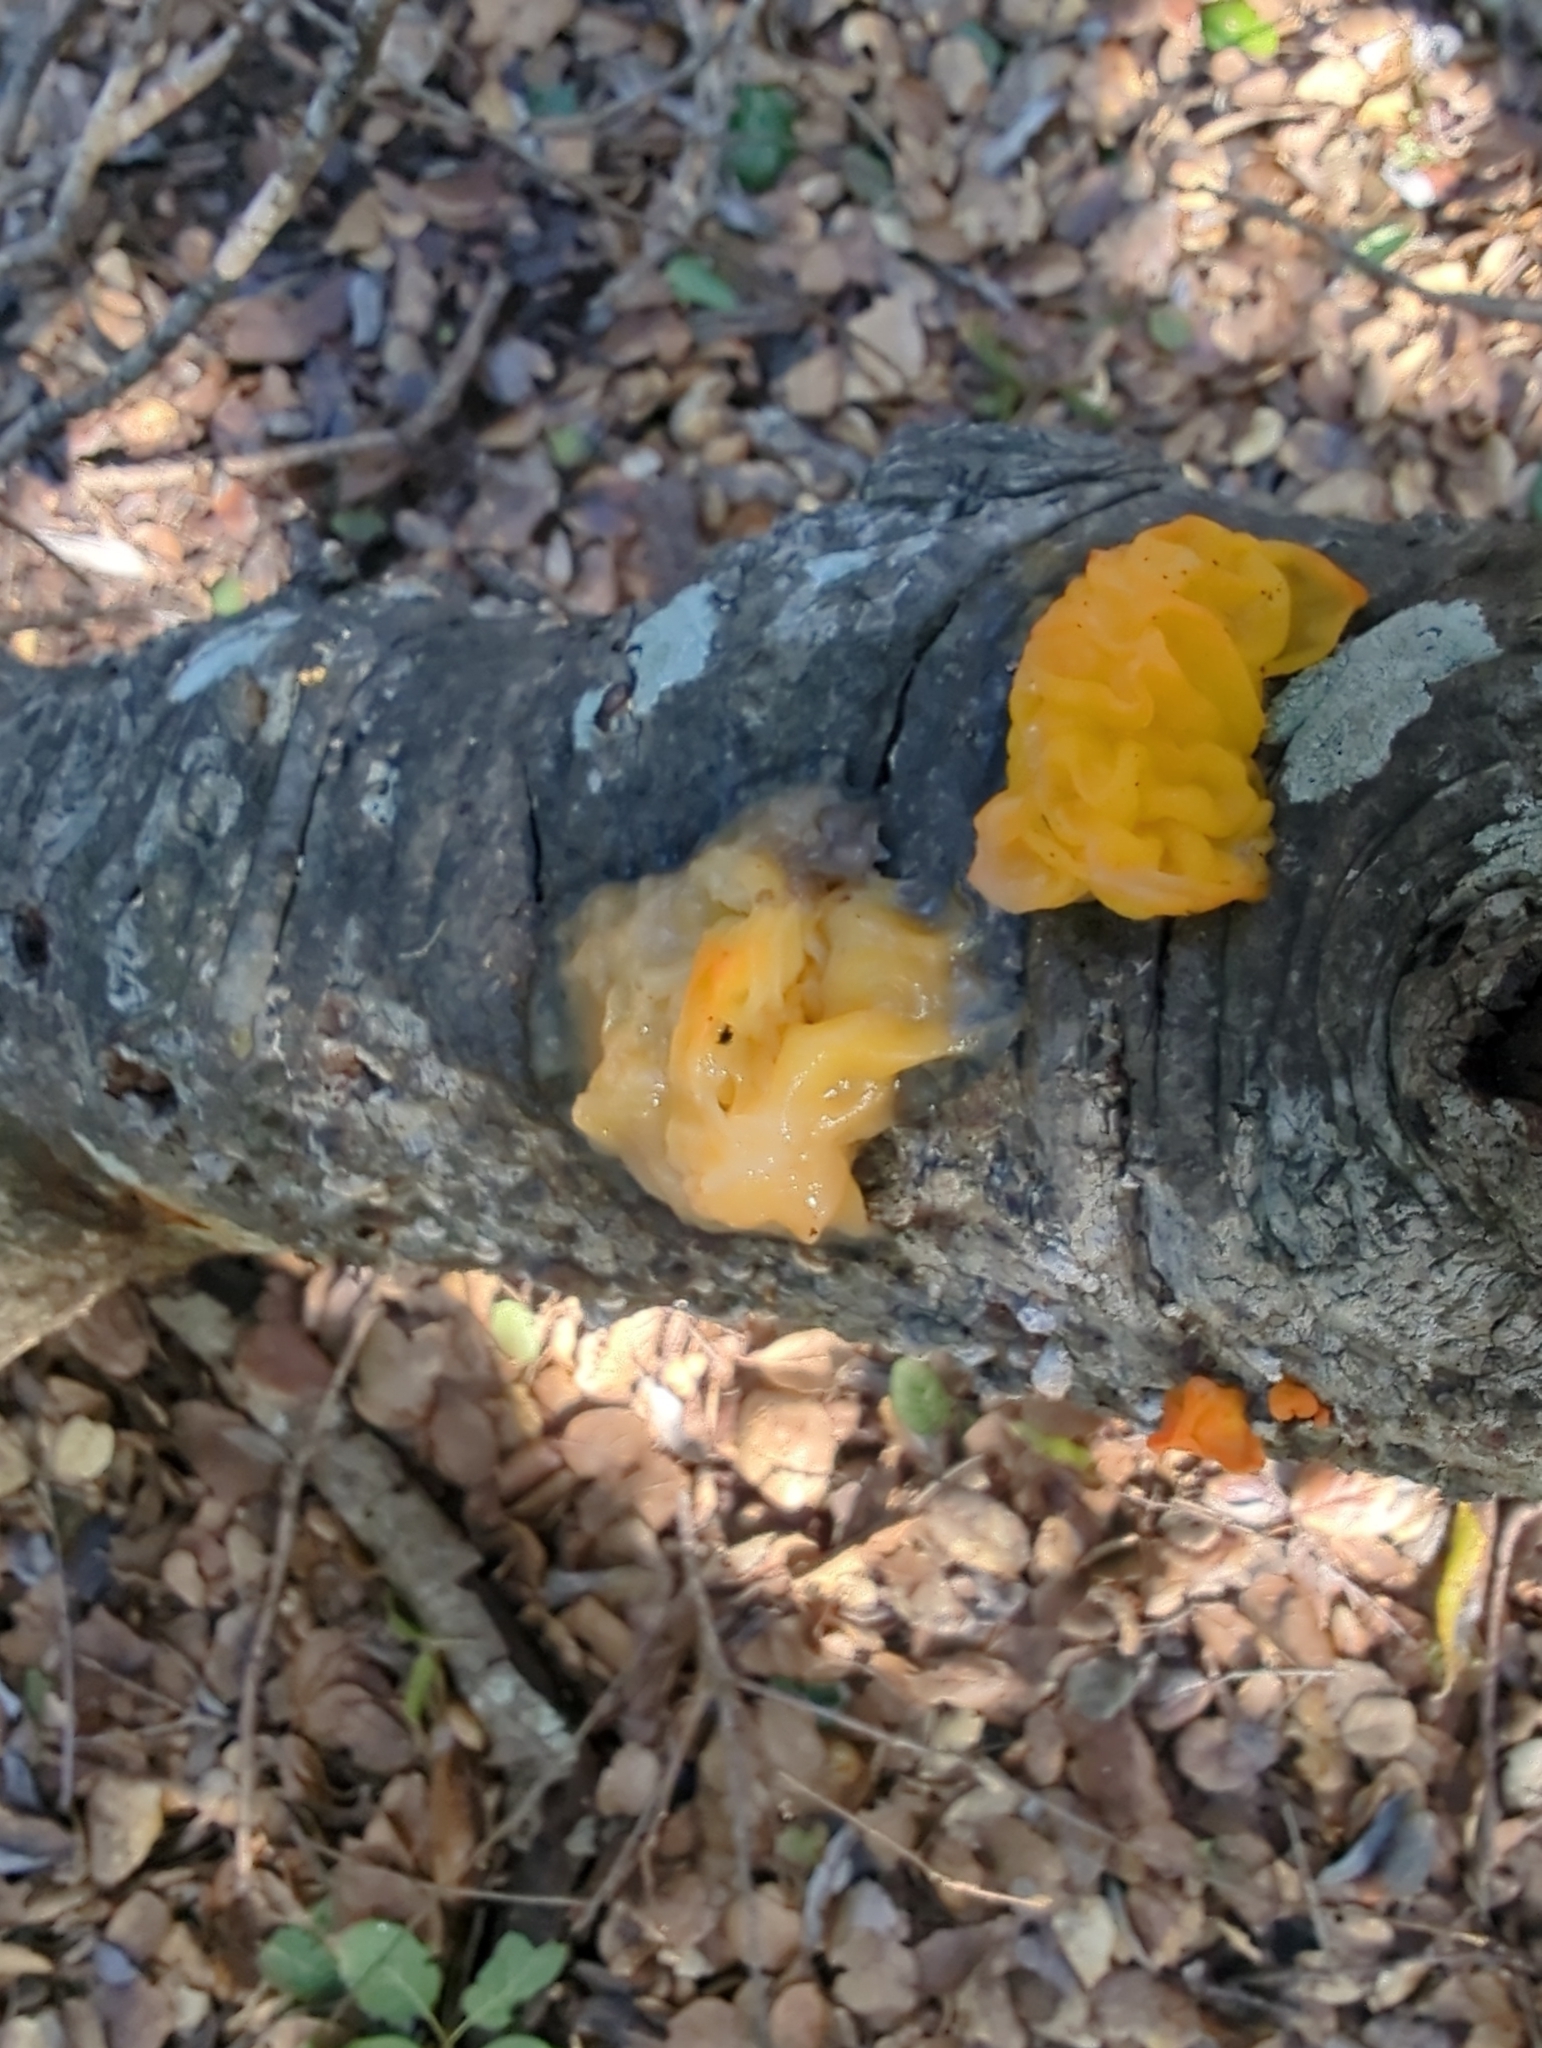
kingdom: Fungi
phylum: Basidiomycota
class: Tremellomycetes
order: Tremellales
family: Naemateliaceae
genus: Naematelia
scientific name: Naematelia aurantia
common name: Golden ear
